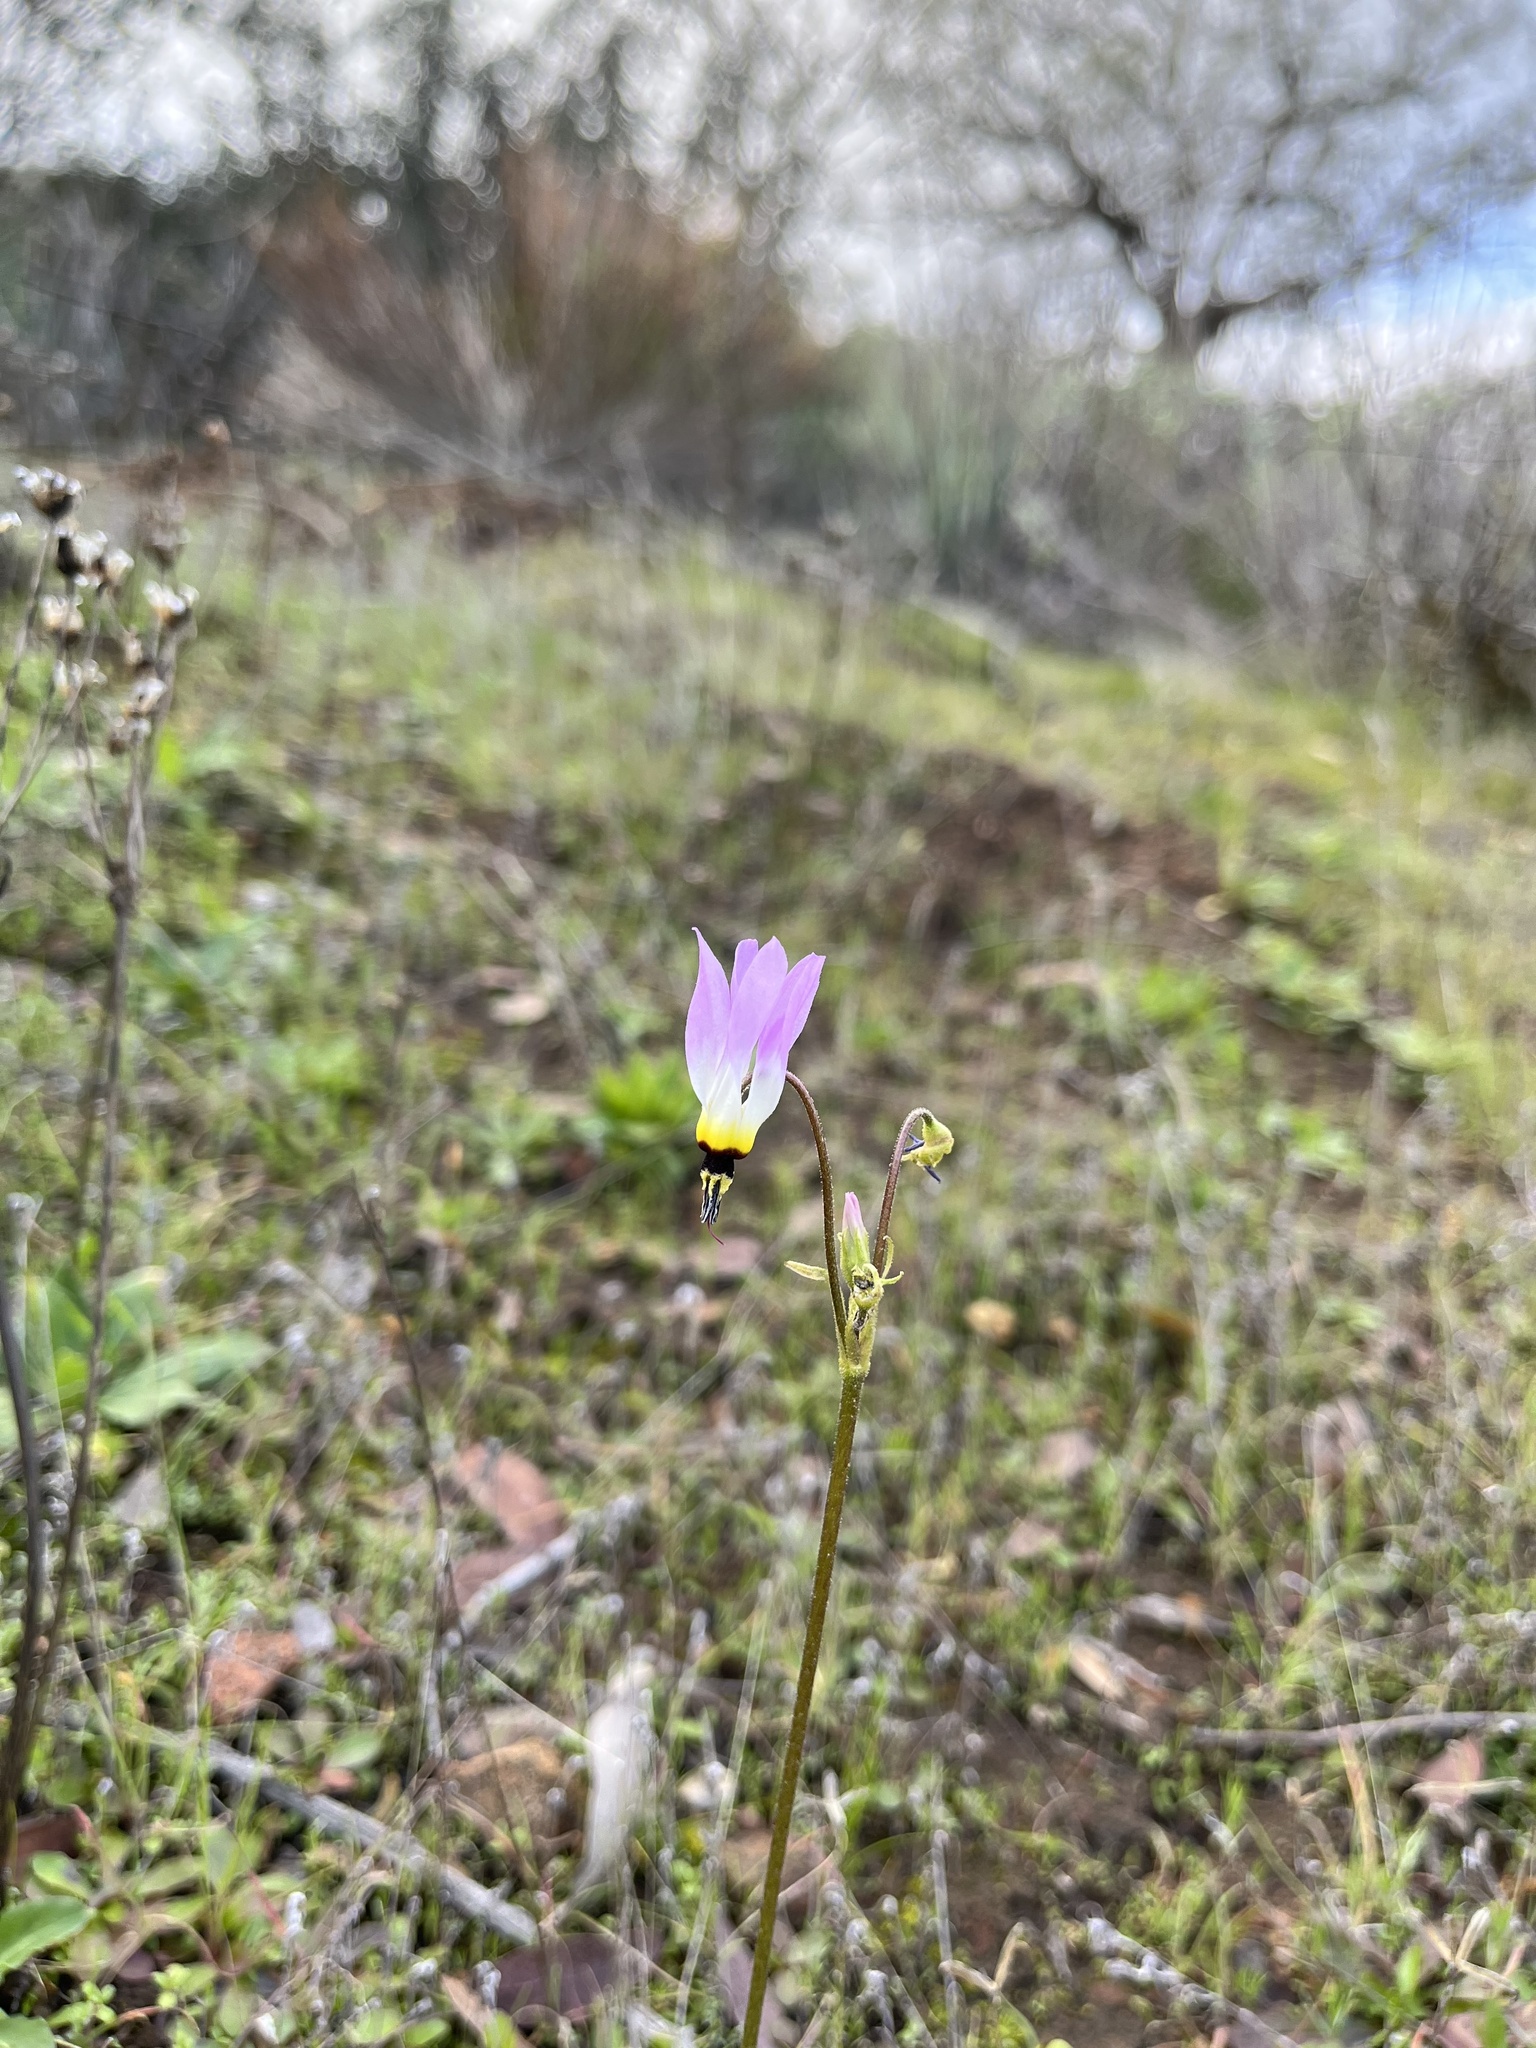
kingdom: Plantae
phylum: Tracheophyta
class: Magnoliopsida
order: Ericales
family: Primulaceae
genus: Dodecatheon
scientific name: Dodecatheon clevelandii
